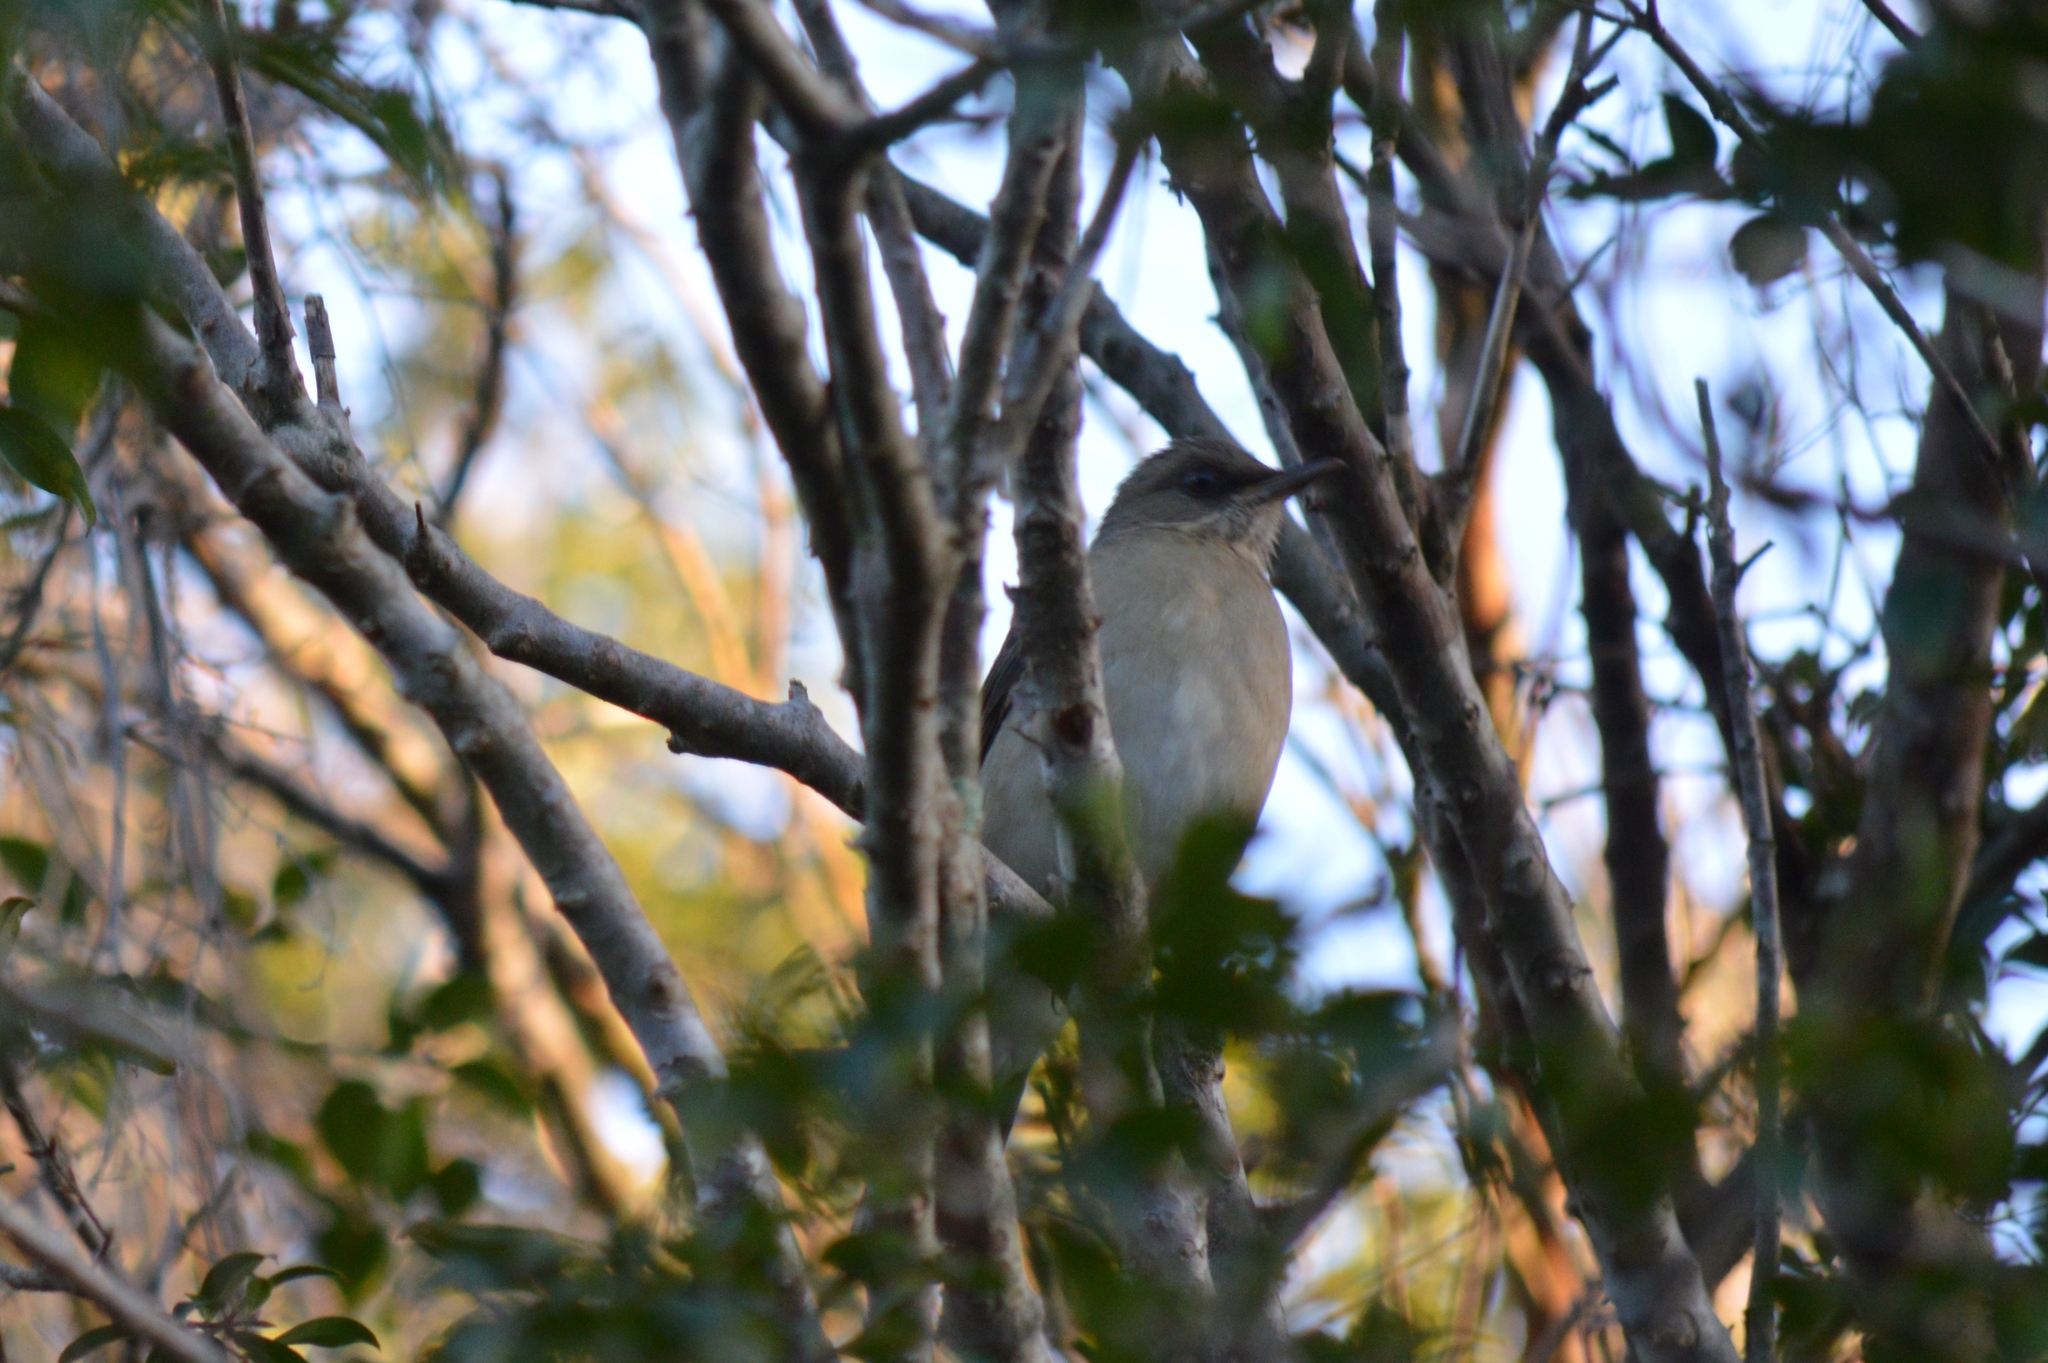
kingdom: Animalia
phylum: Chordata
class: Aves
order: Passeriformes
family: Turdidae
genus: Turdus
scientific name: Turdus amaurochalinus
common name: Creamy-bellied thrush
